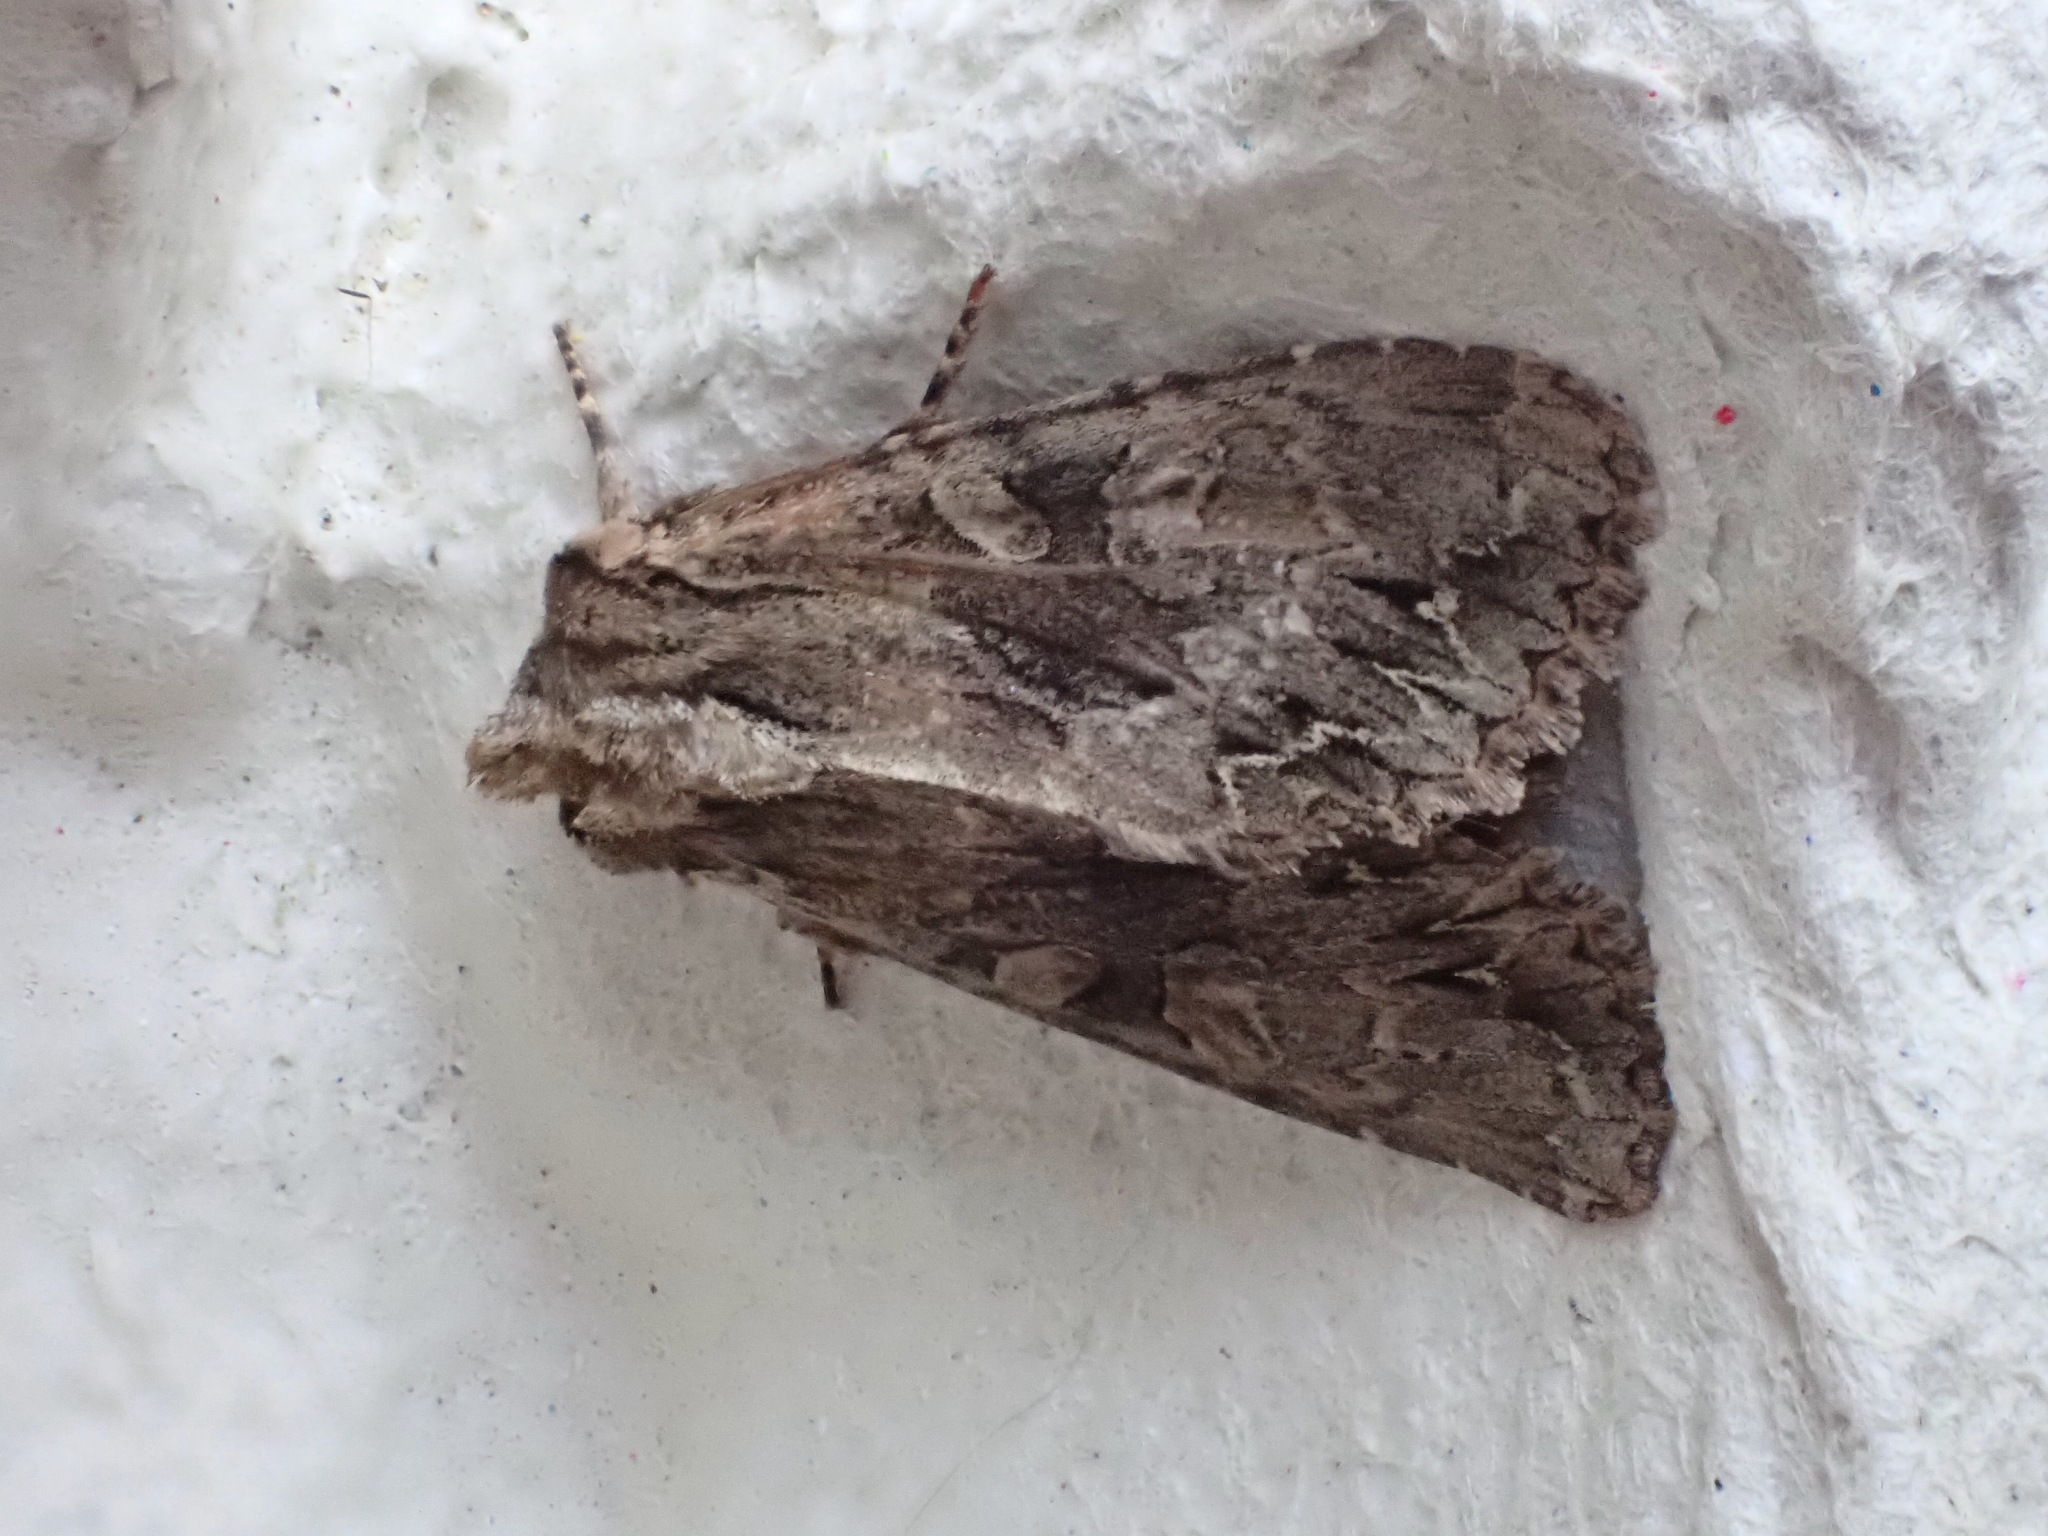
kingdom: Animalia
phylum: Arthropoda
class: Insecta
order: Lepidoptera
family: Noctuidae
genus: Apamea
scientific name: Apamea monoglypha
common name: Dark arches
